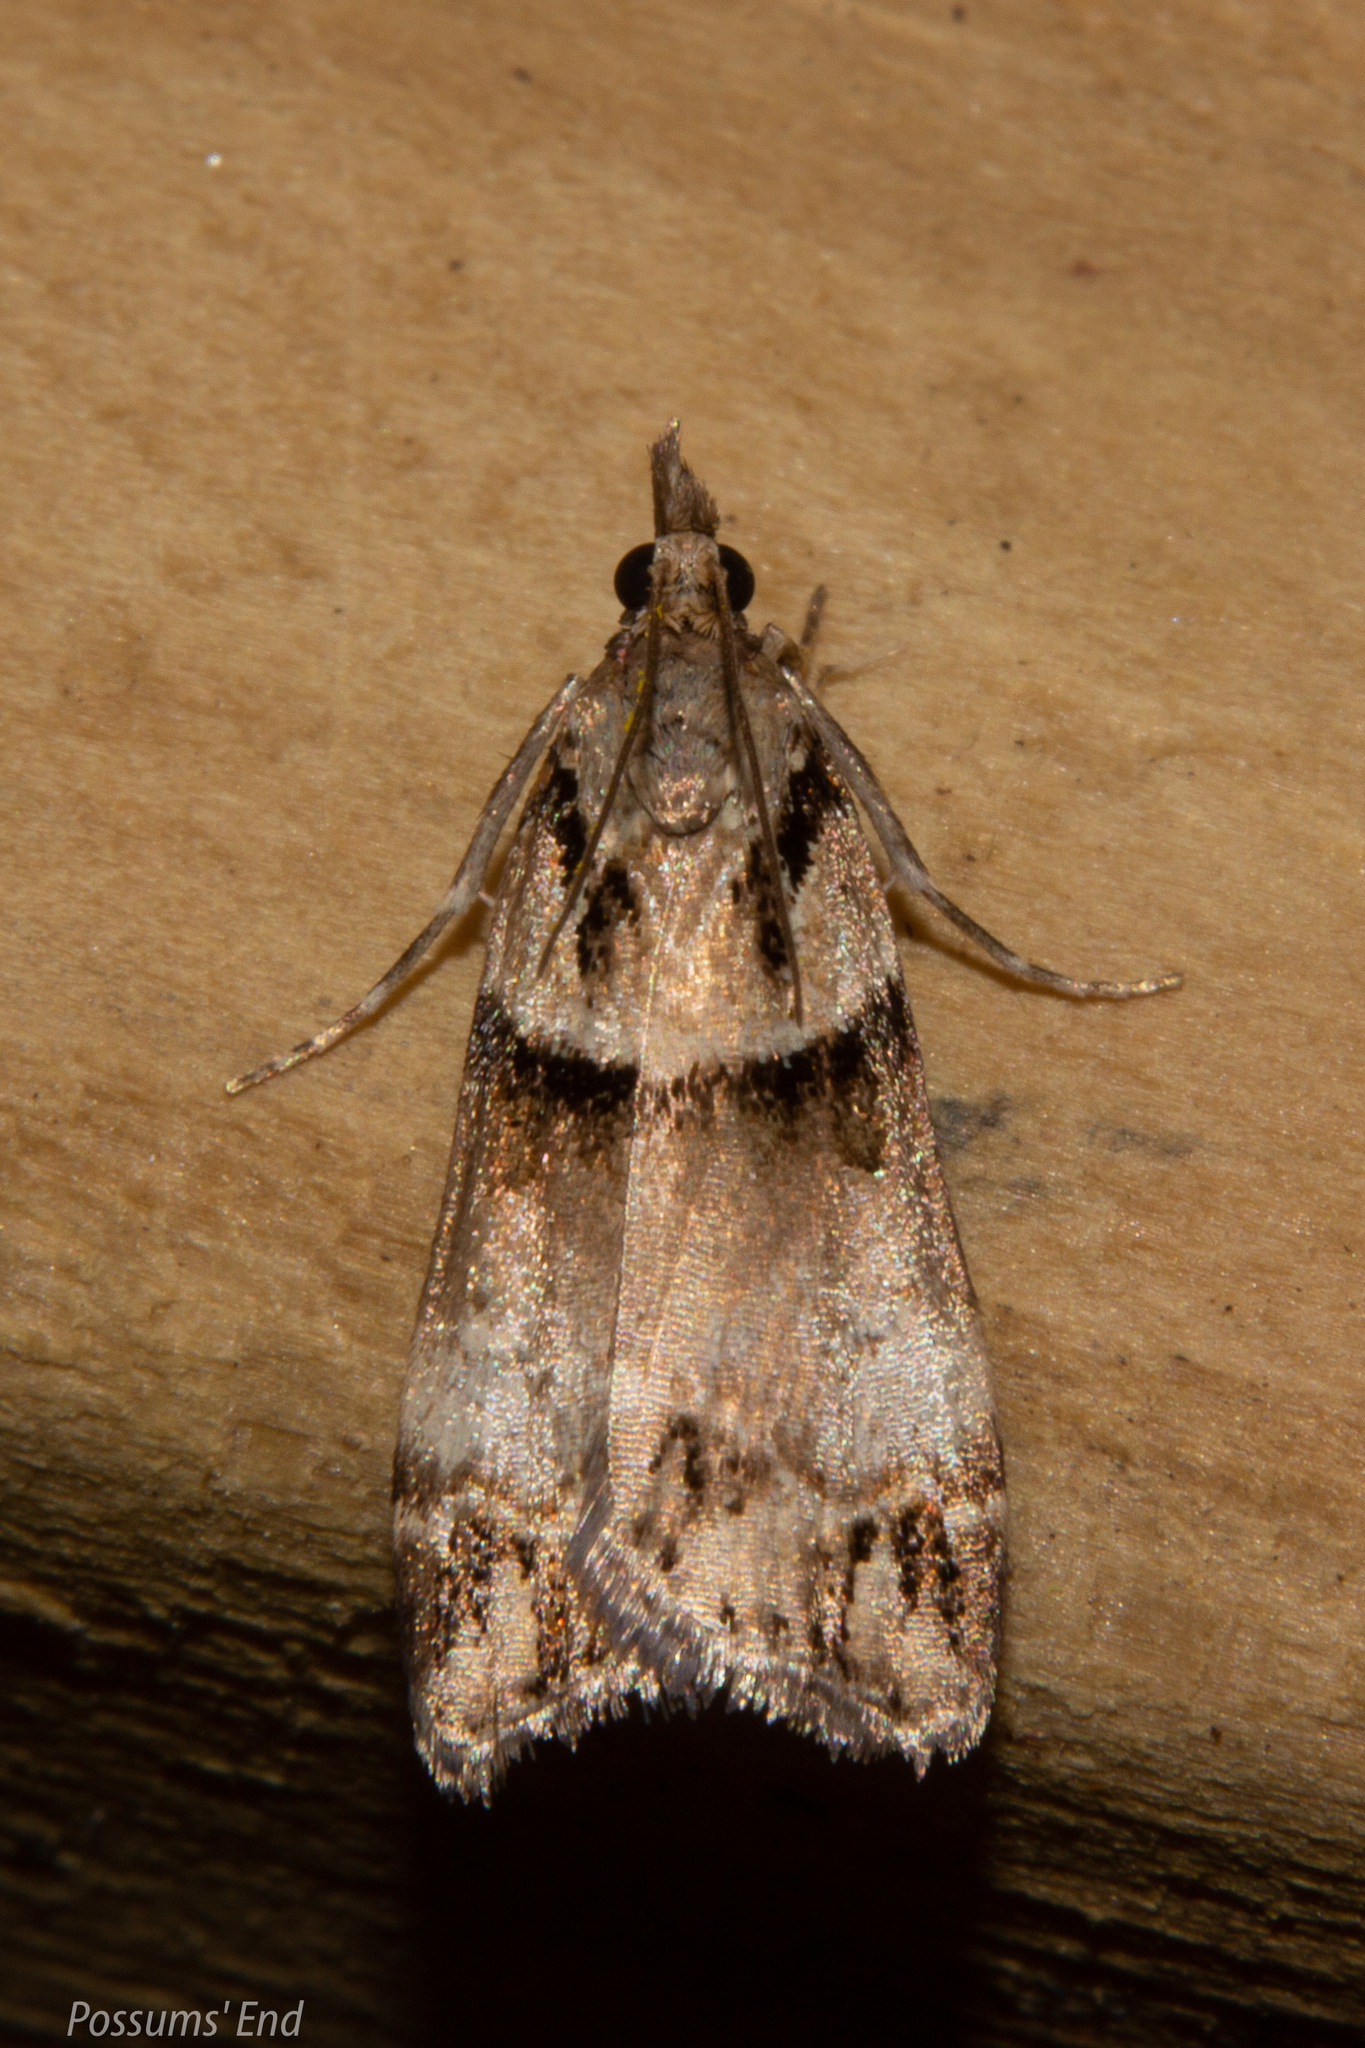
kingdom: Animalia
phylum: Arthropoda
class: Insecta
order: Lepidoptera
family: Crambidae
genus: Eudonia
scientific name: Eudonia periphanes
